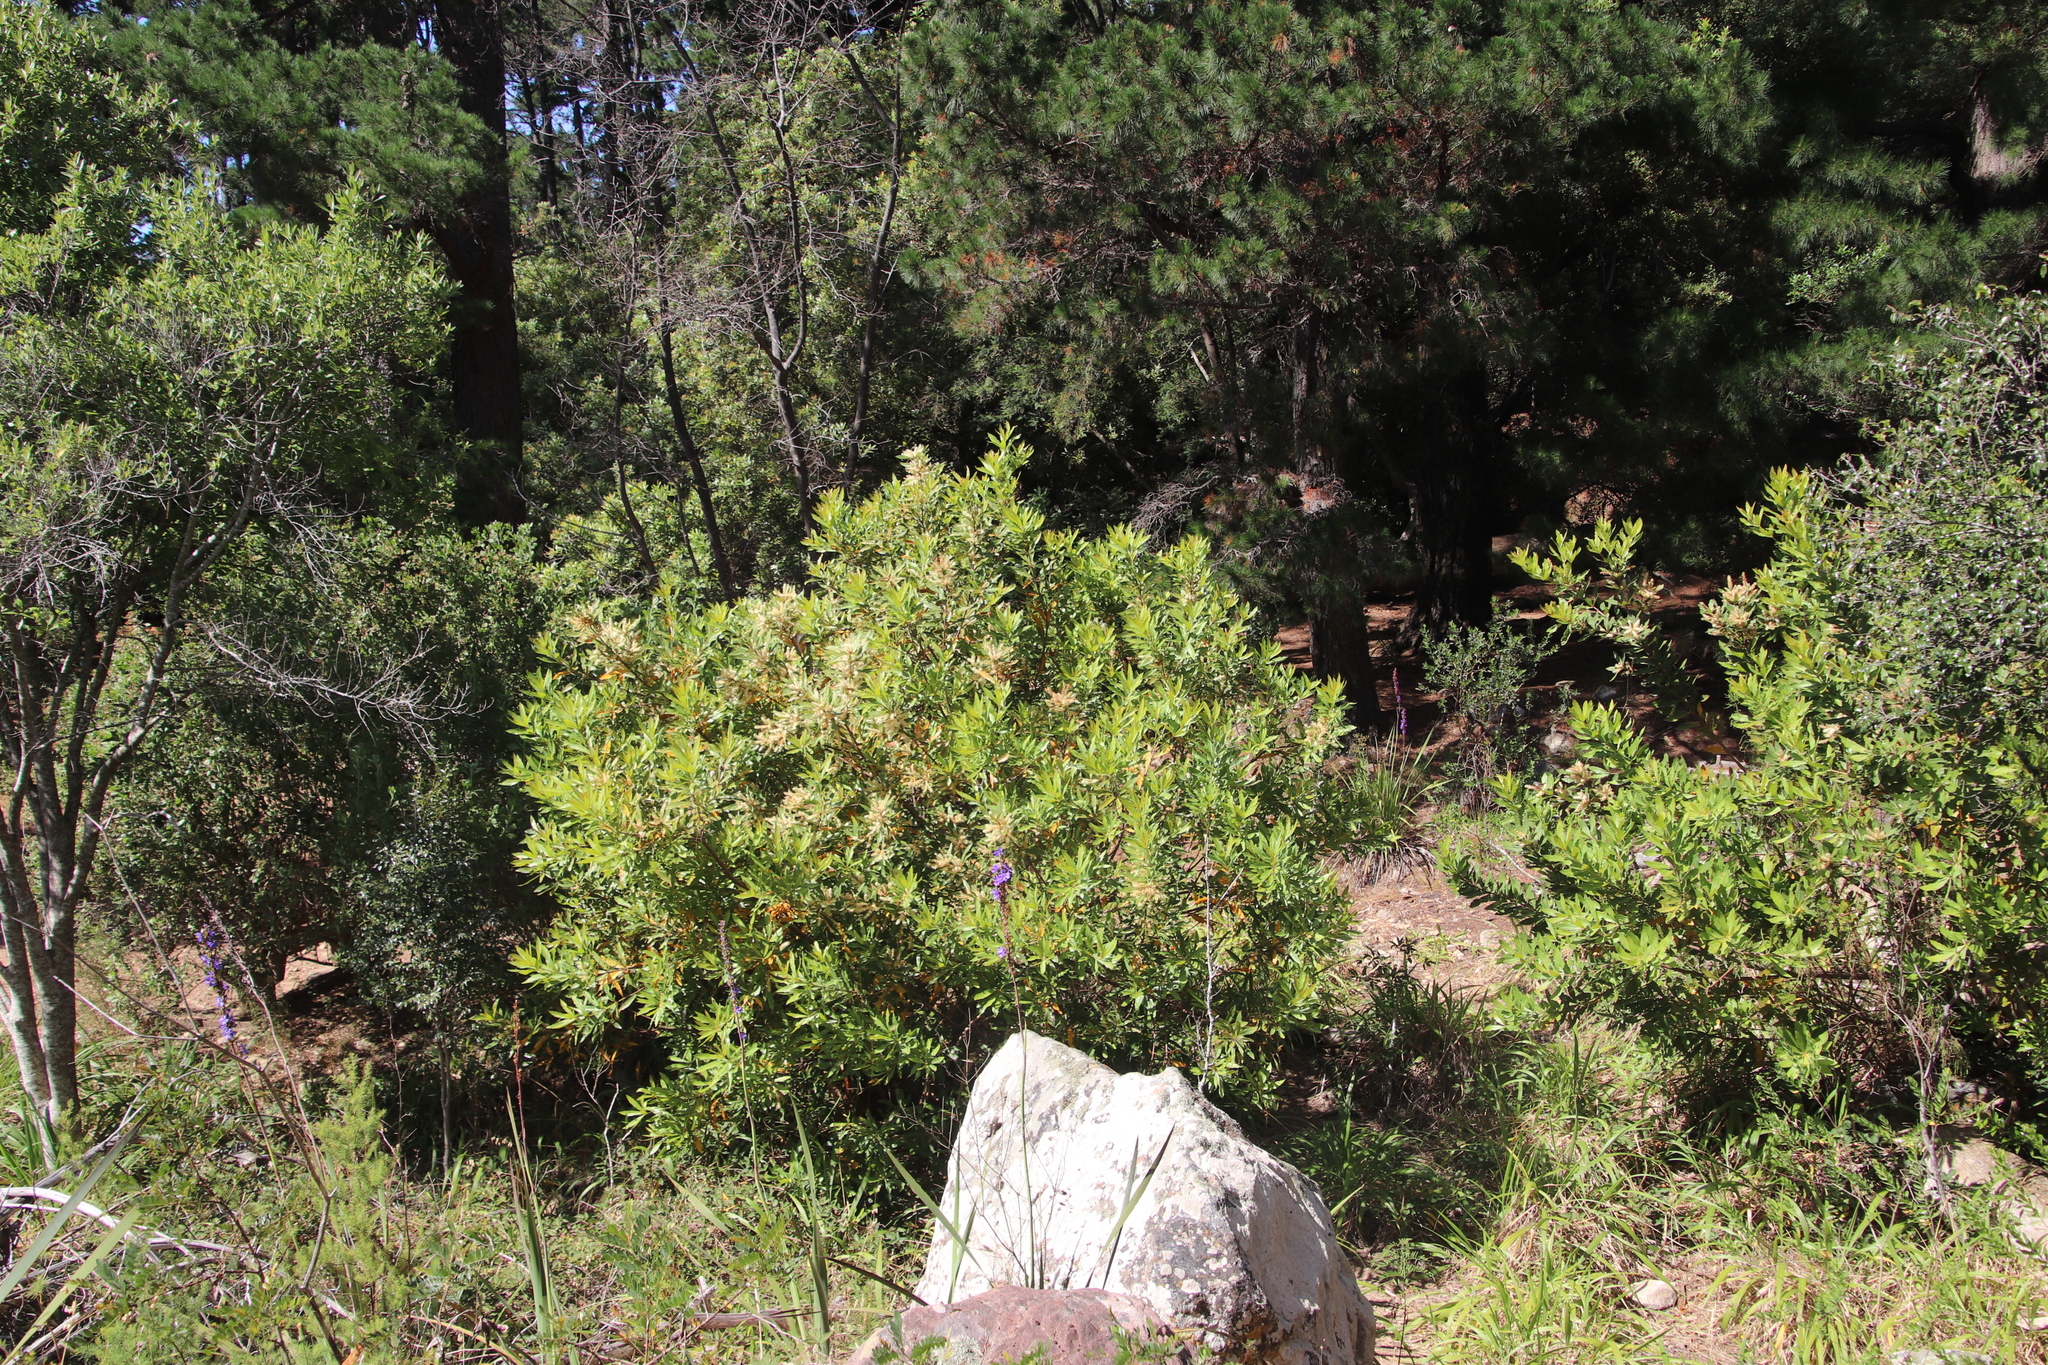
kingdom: Plantae
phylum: Tracheophyta
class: Magnoliopsida
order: Proteales
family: Proteaceae
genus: Brabejum
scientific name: Brabejum stellatifolium
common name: Wild almond
